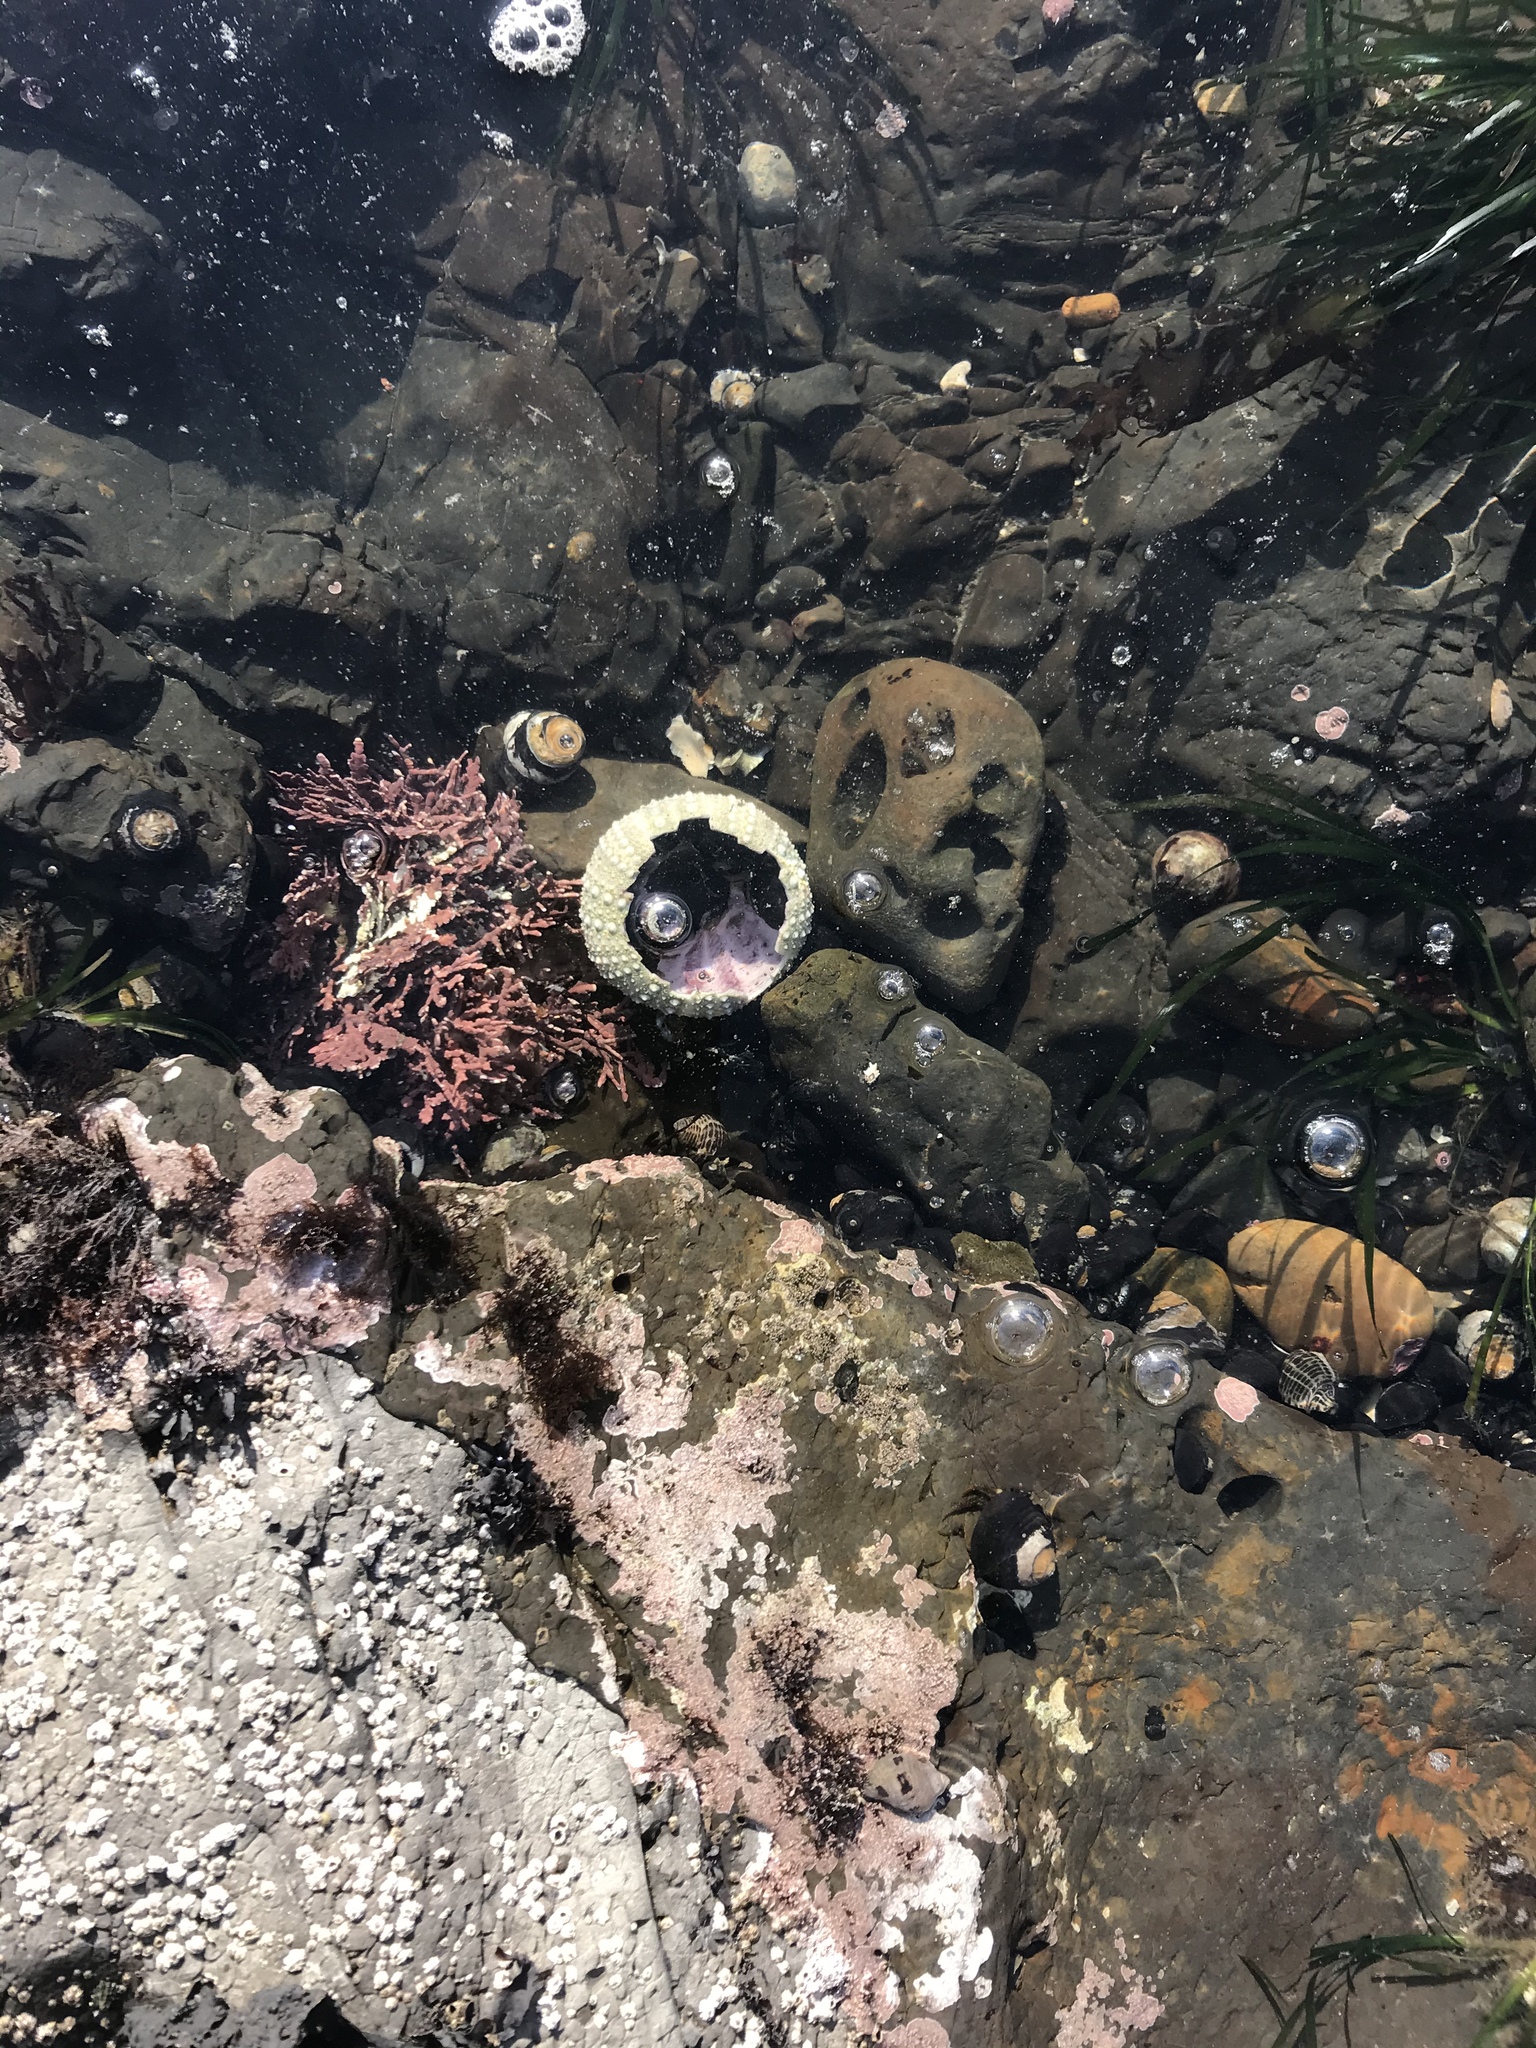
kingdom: Animalia
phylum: Echinodermata
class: Echinoidea
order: Camarodonta
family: Strongylocentrotidae
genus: Strongylocentrotus
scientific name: Strongylocentrotus purpuratus
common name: Purple sea urchin
